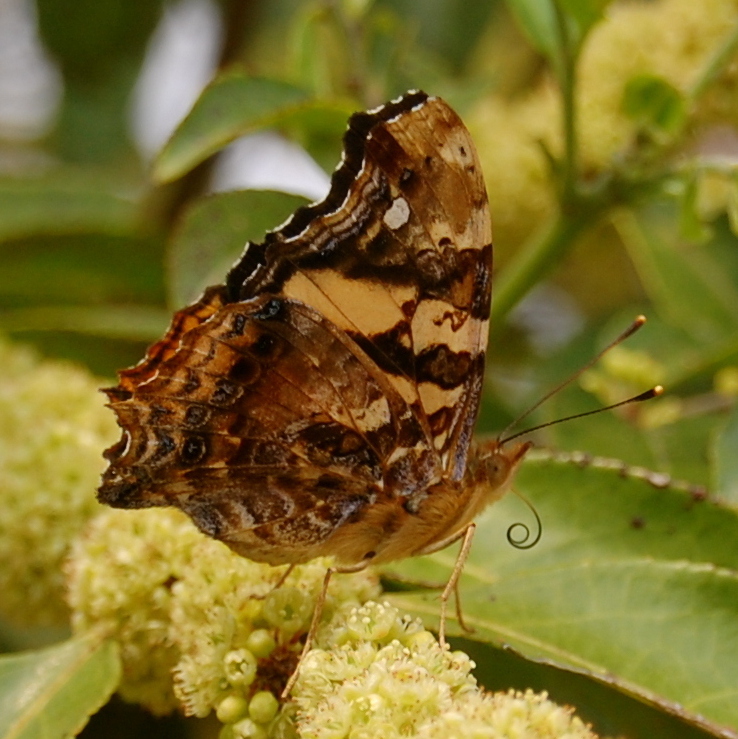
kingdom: Animalia
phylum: Arthropoda
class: Insecta
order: Lepidoptera
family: Nymphalidae
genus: Hypanartia
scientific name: Hypanartia bella
